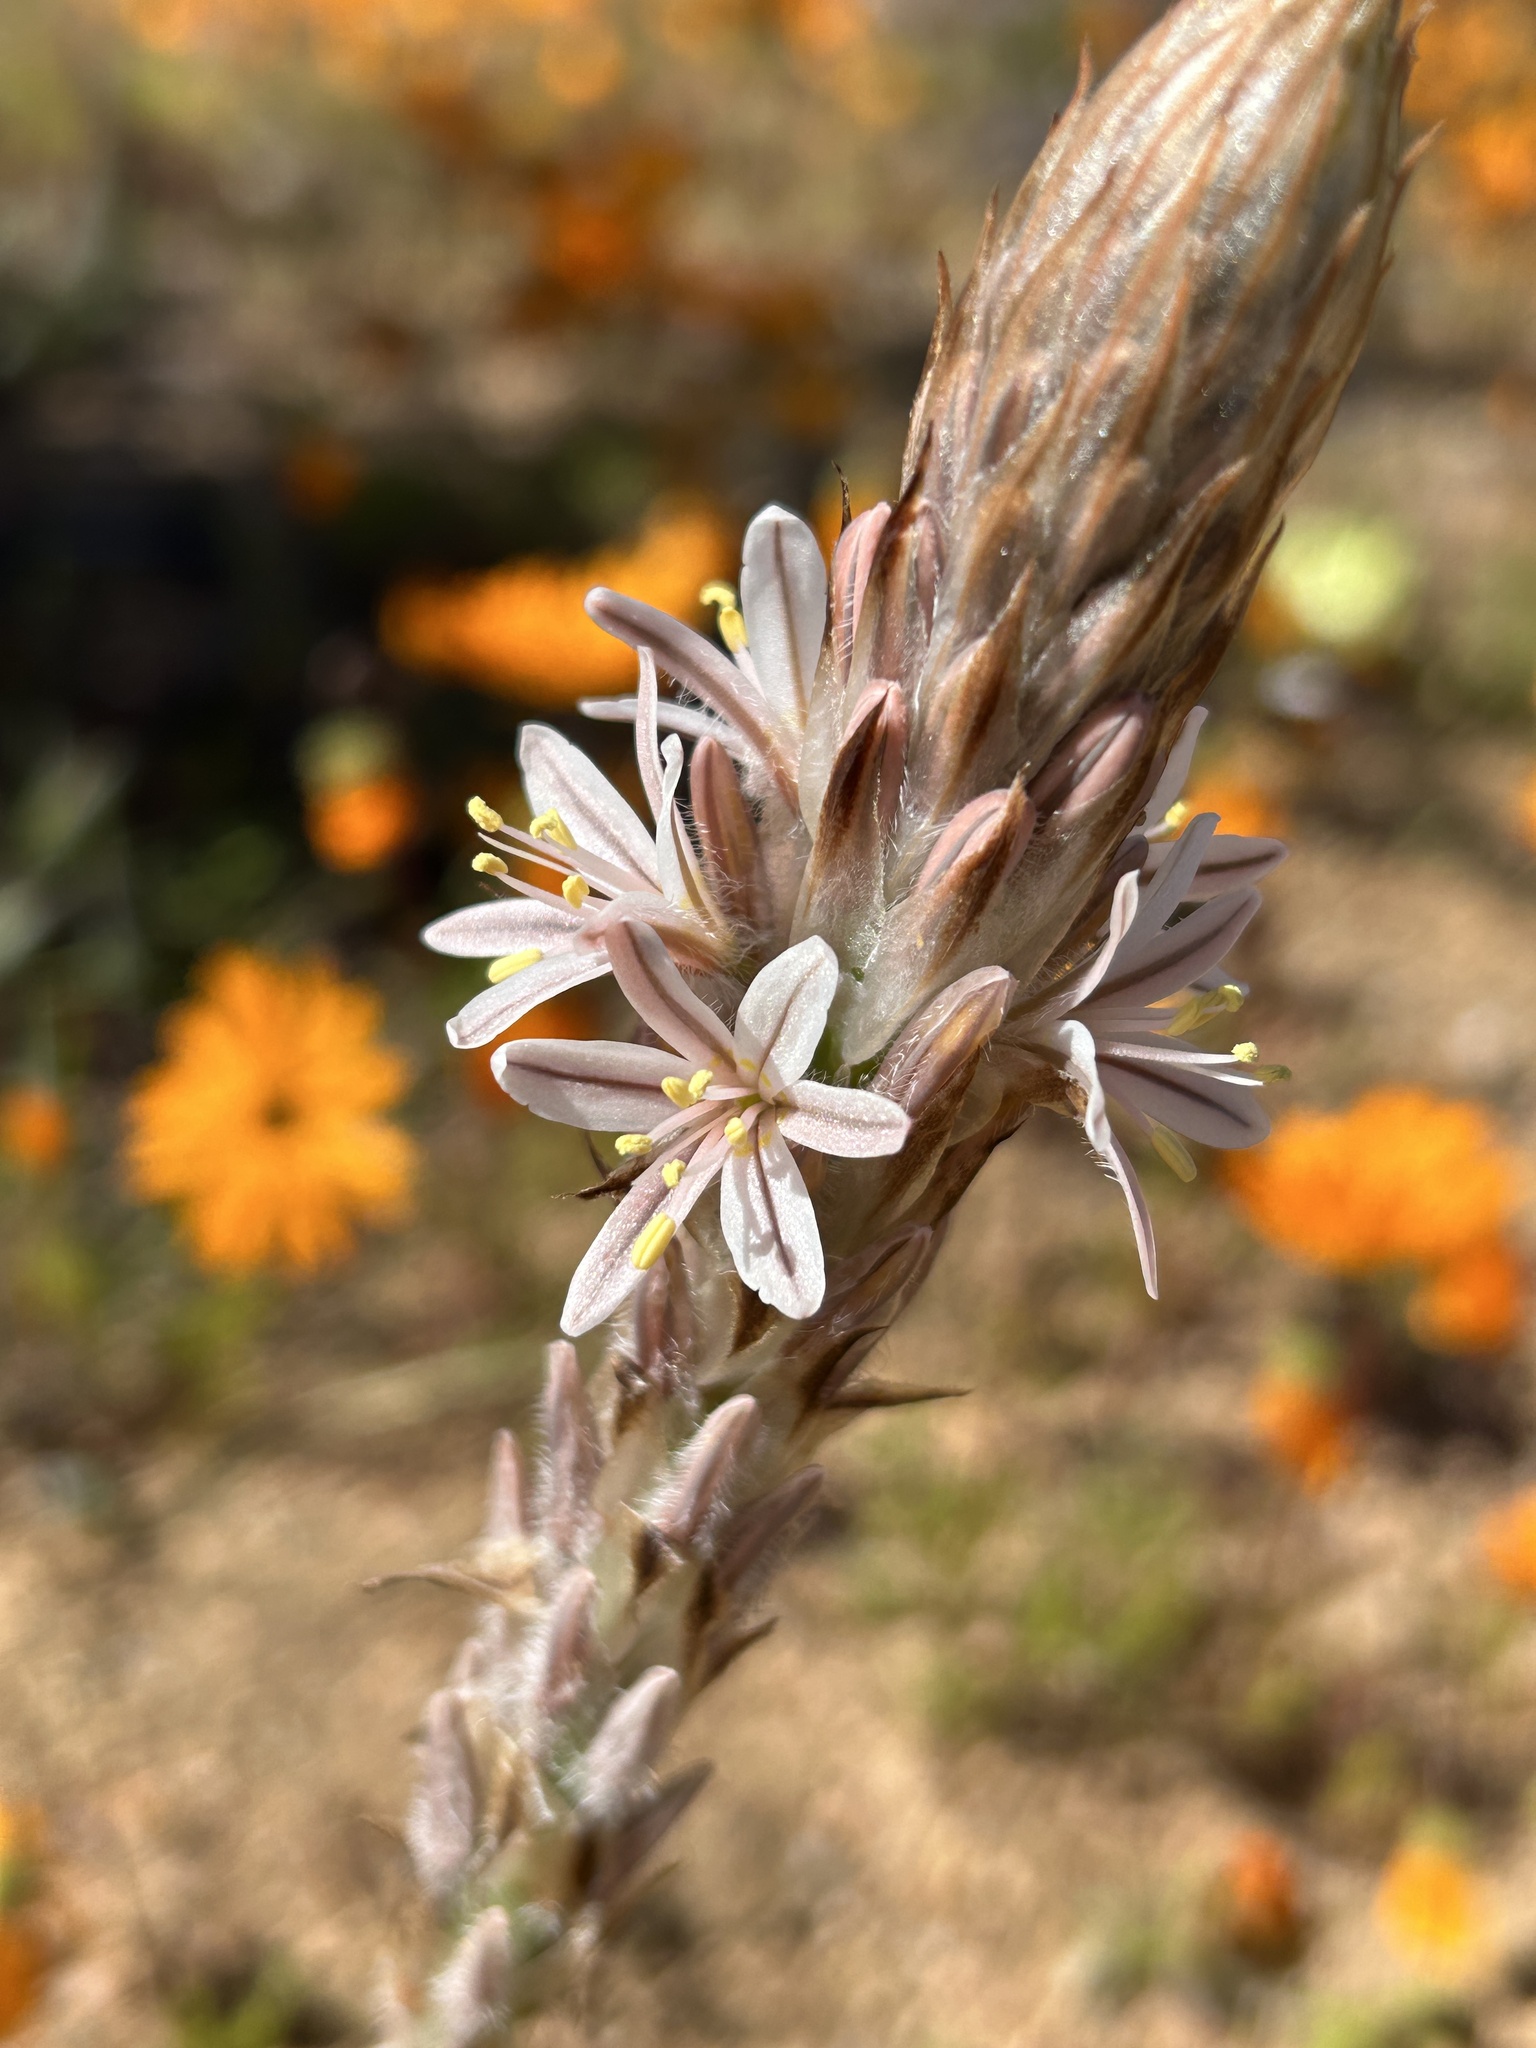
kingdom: Plantae
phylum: Tracheophyta
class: Liliopsida
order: Asparagales
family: Asphodelaceae
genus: Trachyandra
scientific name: Trachyandra falcata
